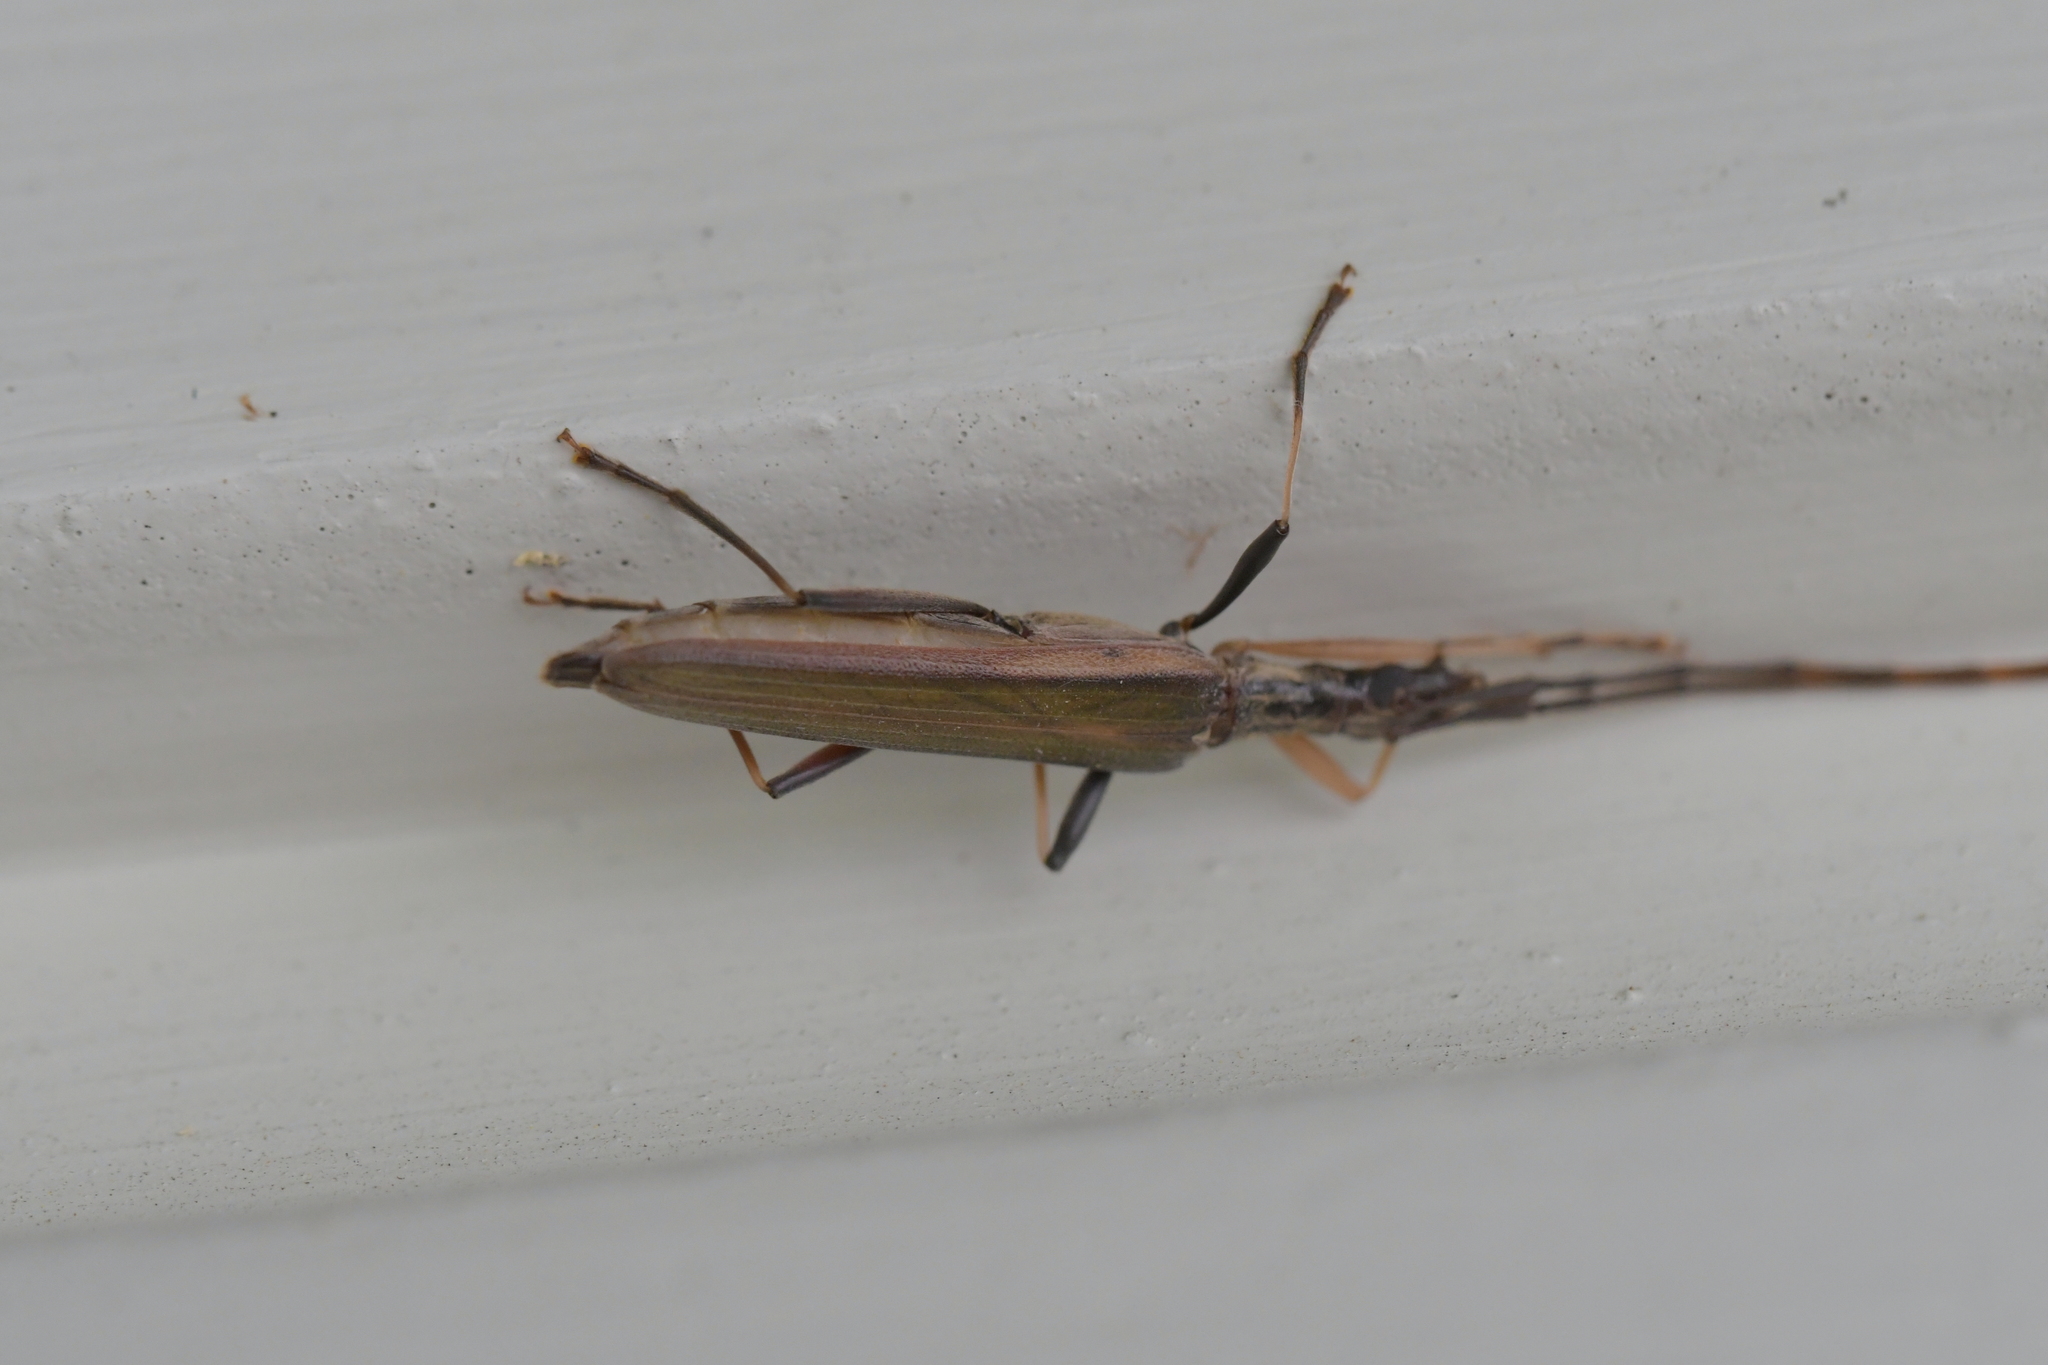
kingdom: Animalia
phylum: Arthropoda
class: Insecta
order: Coleoptera
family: Cerambycidae
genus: Stenopotes
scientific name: Stenopotes pallidus
